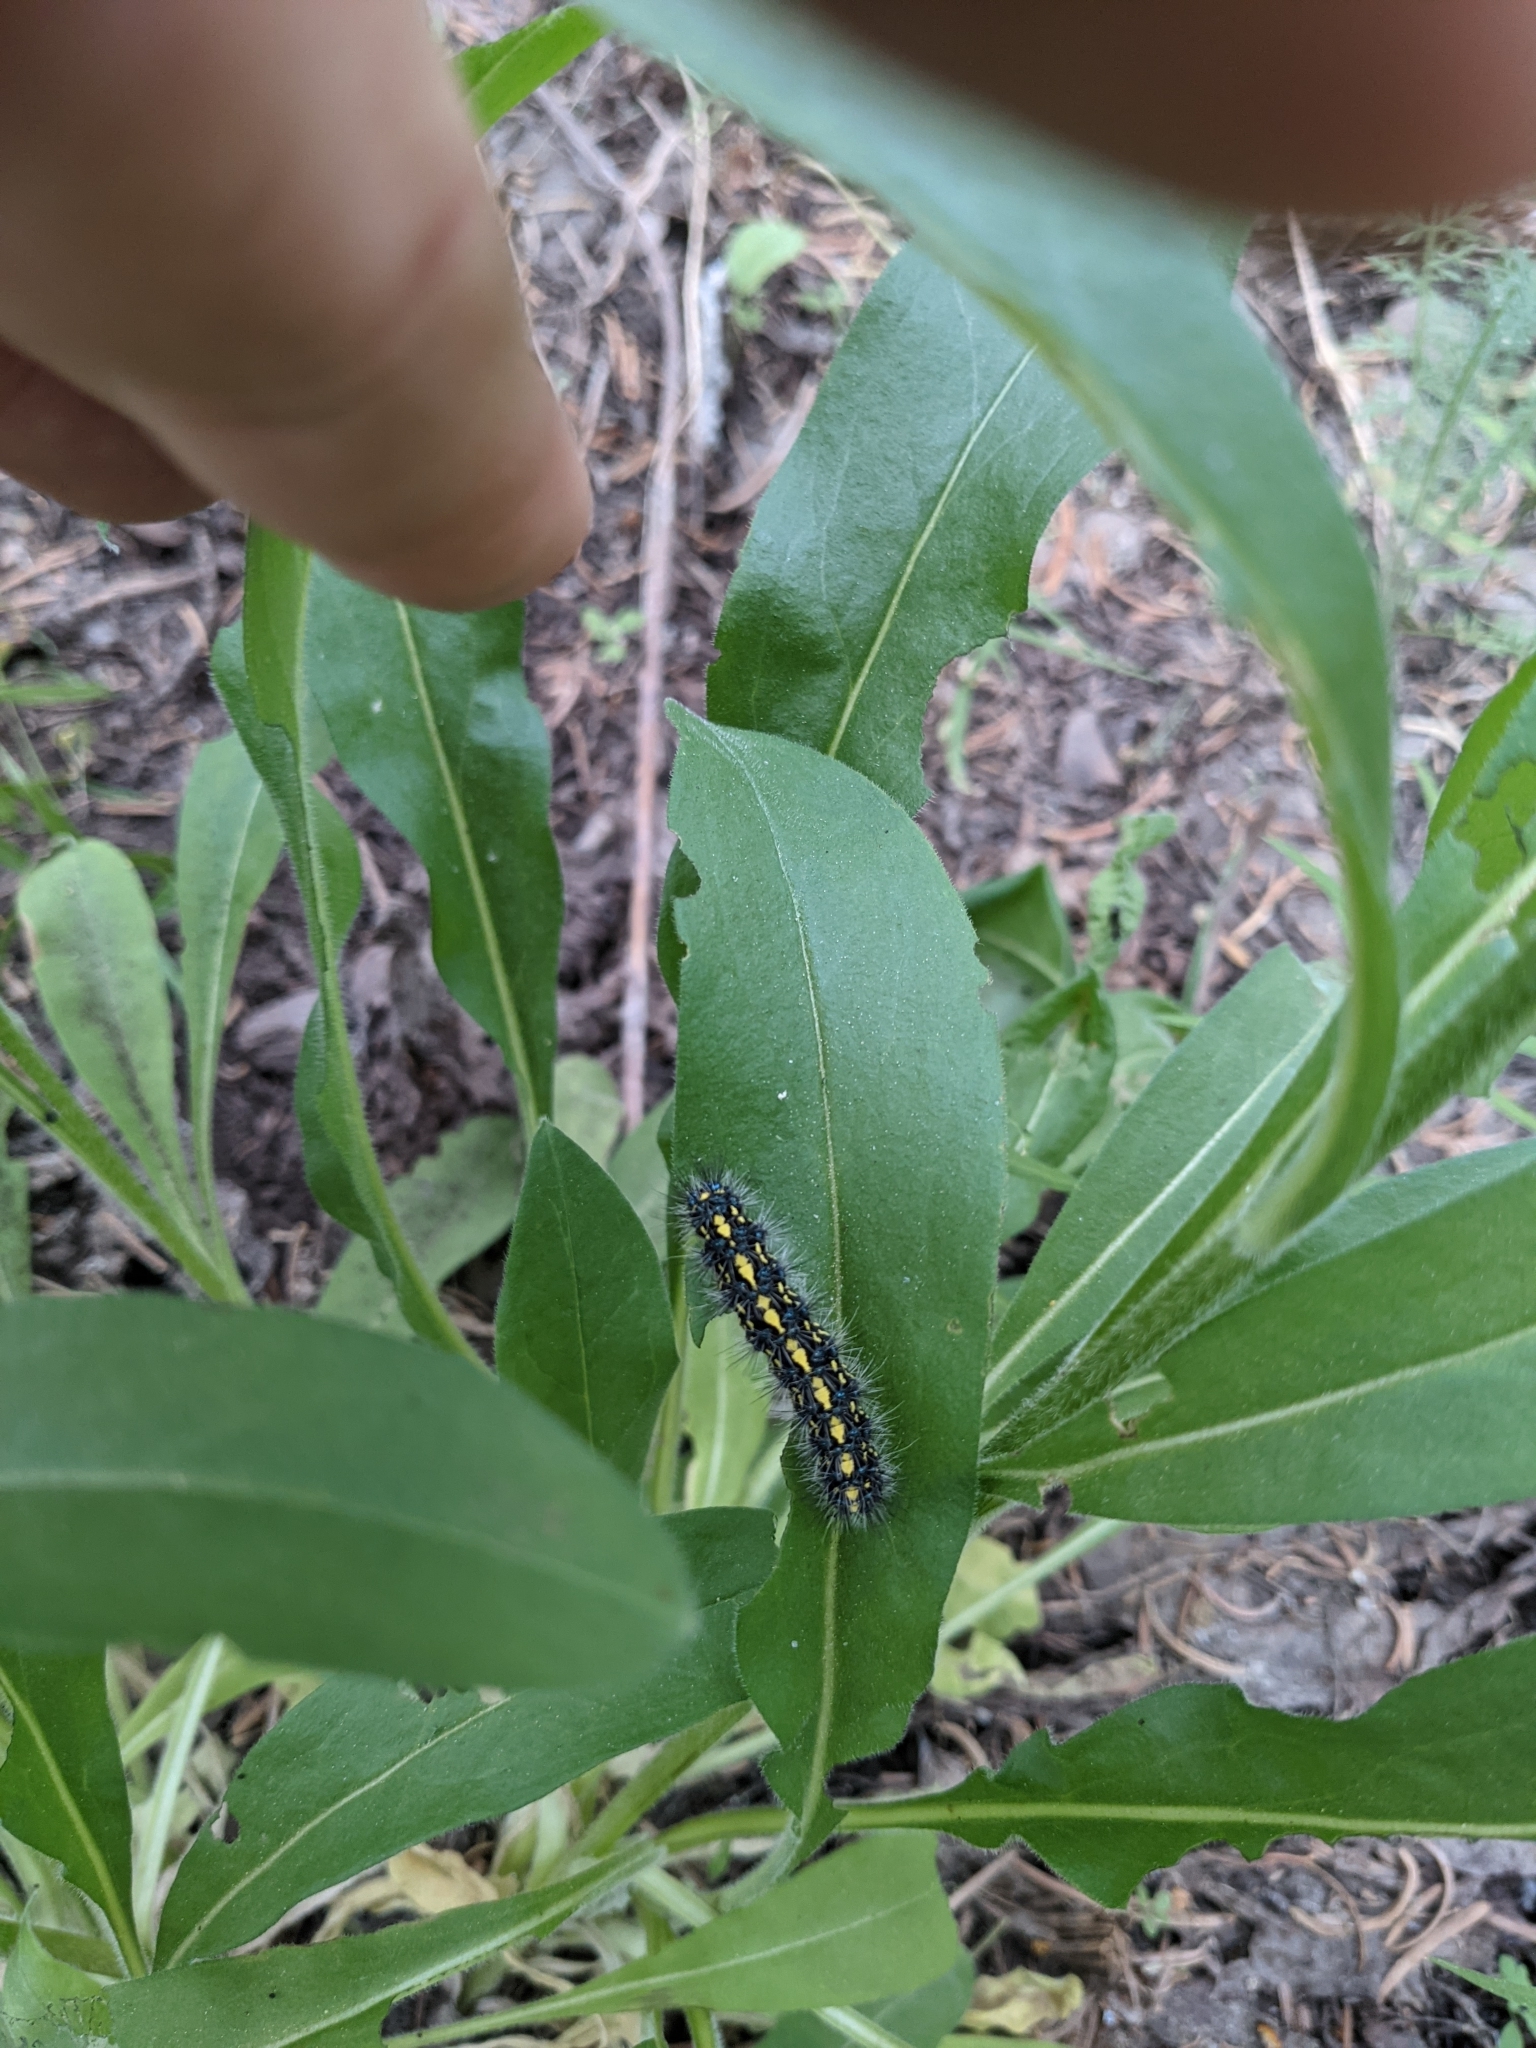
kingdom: Animalia
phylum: Arthropoda
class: Insecta
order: Lepidoptera
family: Erebidae
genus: Gnophaela
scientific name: Gnophaela vermiculata
